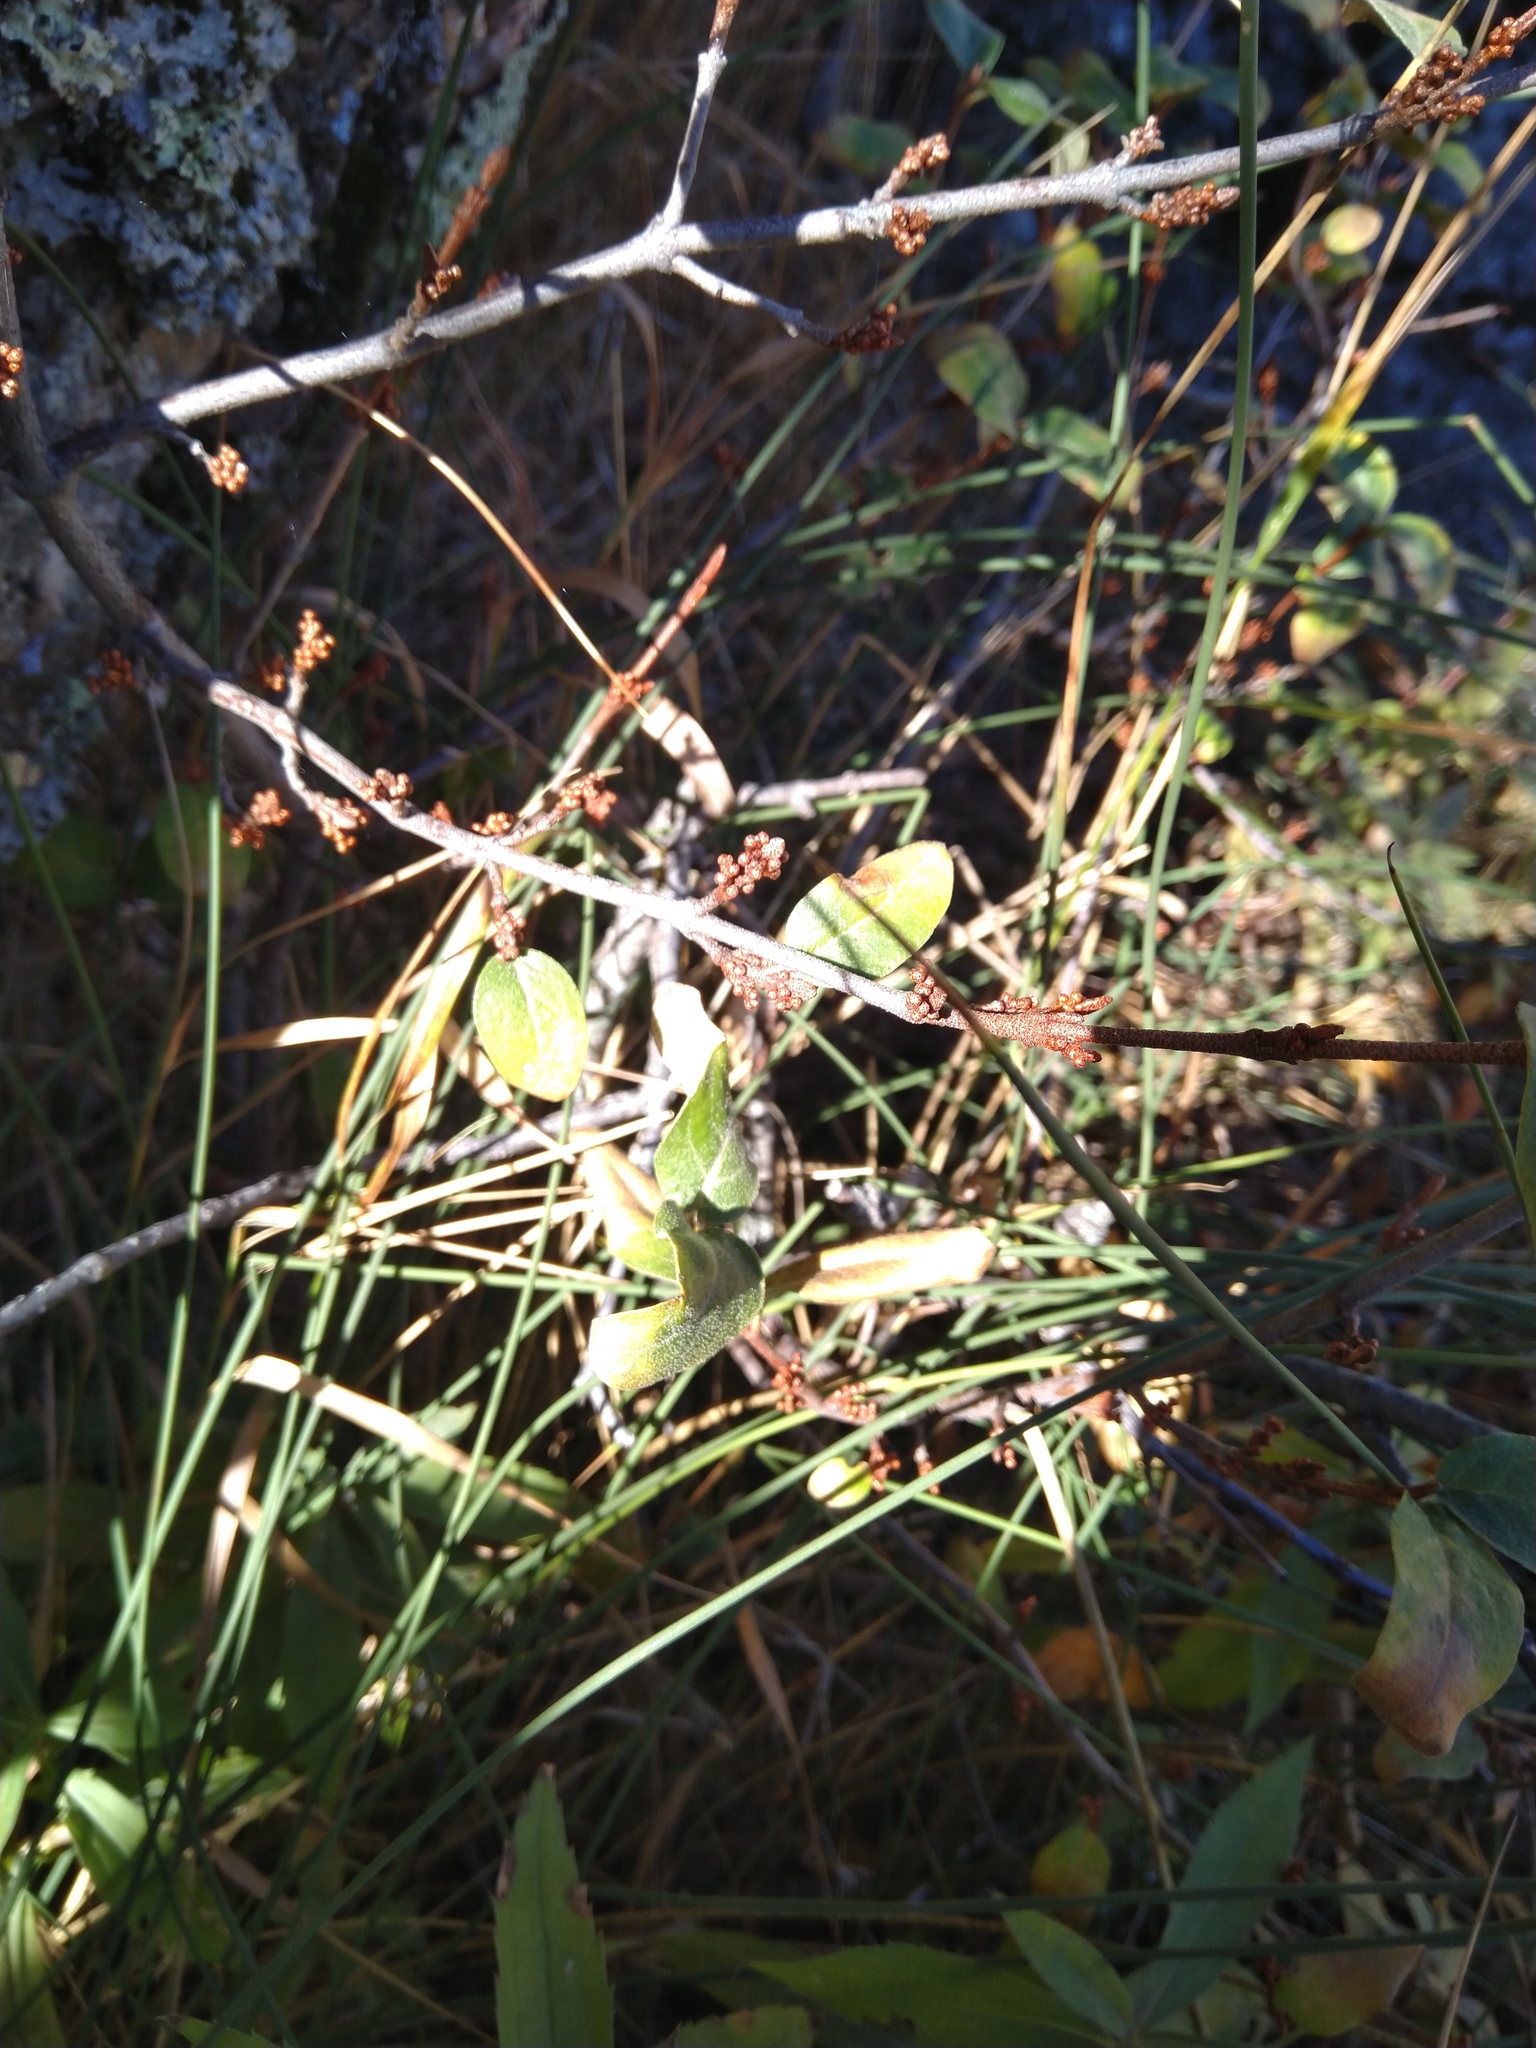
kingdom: Plantae
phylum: Tracheophyta
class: Magnoliopsida
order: Rosales
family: Elaeagnaceae
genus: Shepherdia
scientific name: Shepherdia canadensis
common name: Soapberry
